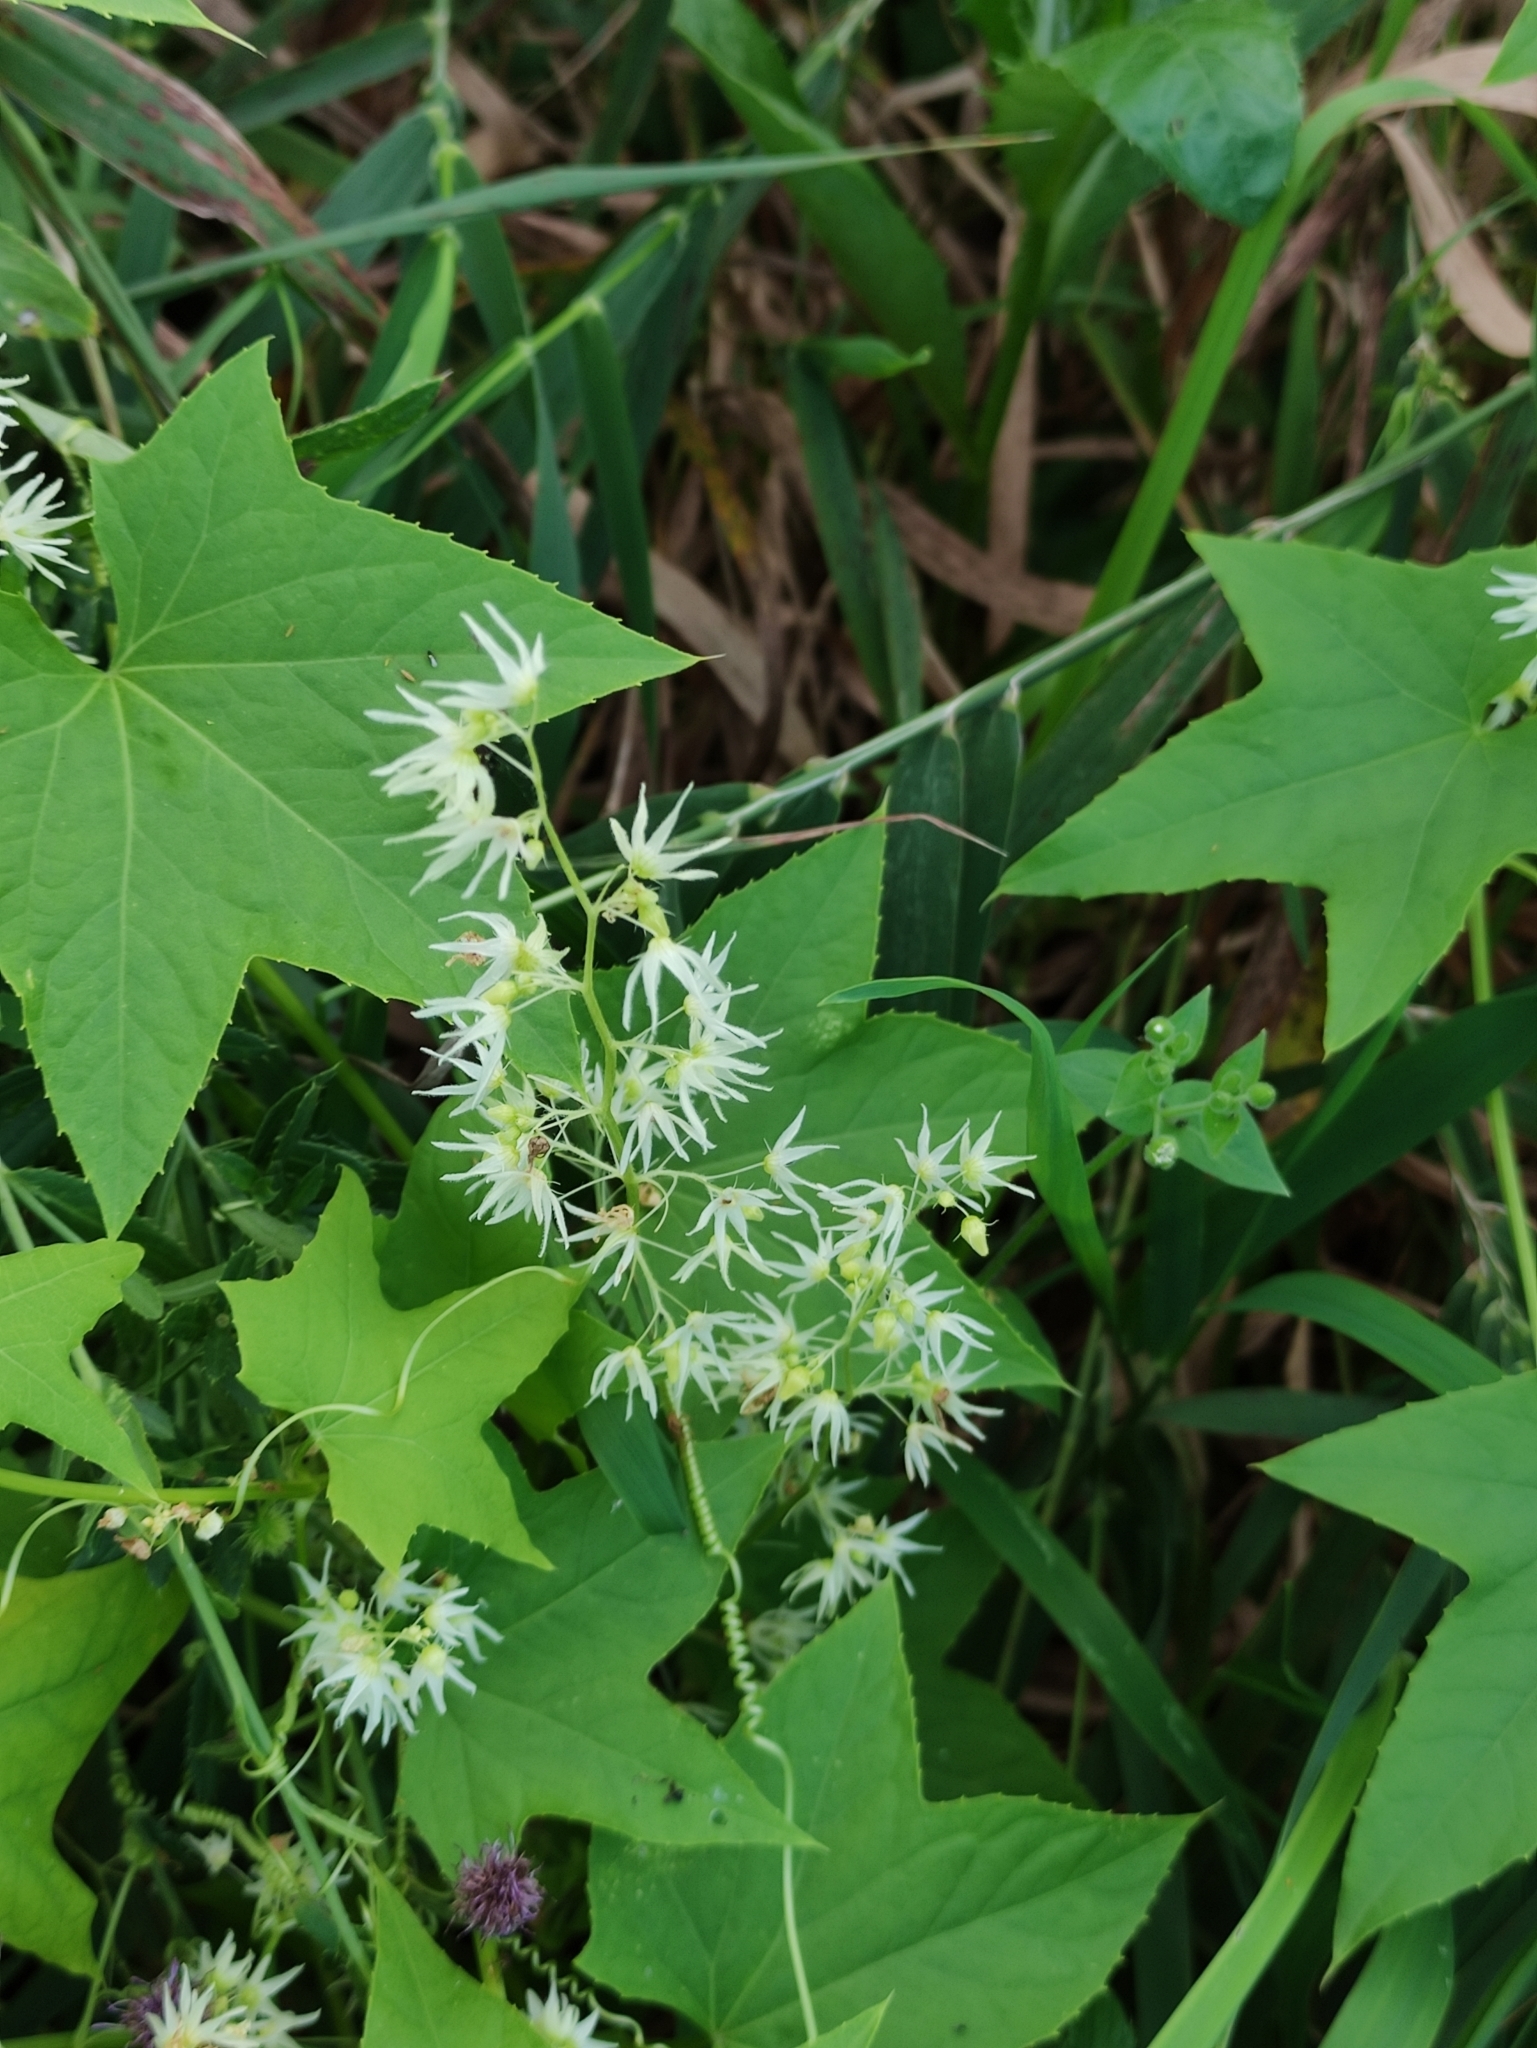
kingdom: Plantae
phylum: Tracheophyta
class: Magnoliopsida
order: Cucurbitales
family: Cucurbitaceae
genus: Echinocystis
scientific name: Echinocystis lobata
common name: Wild cucumber
